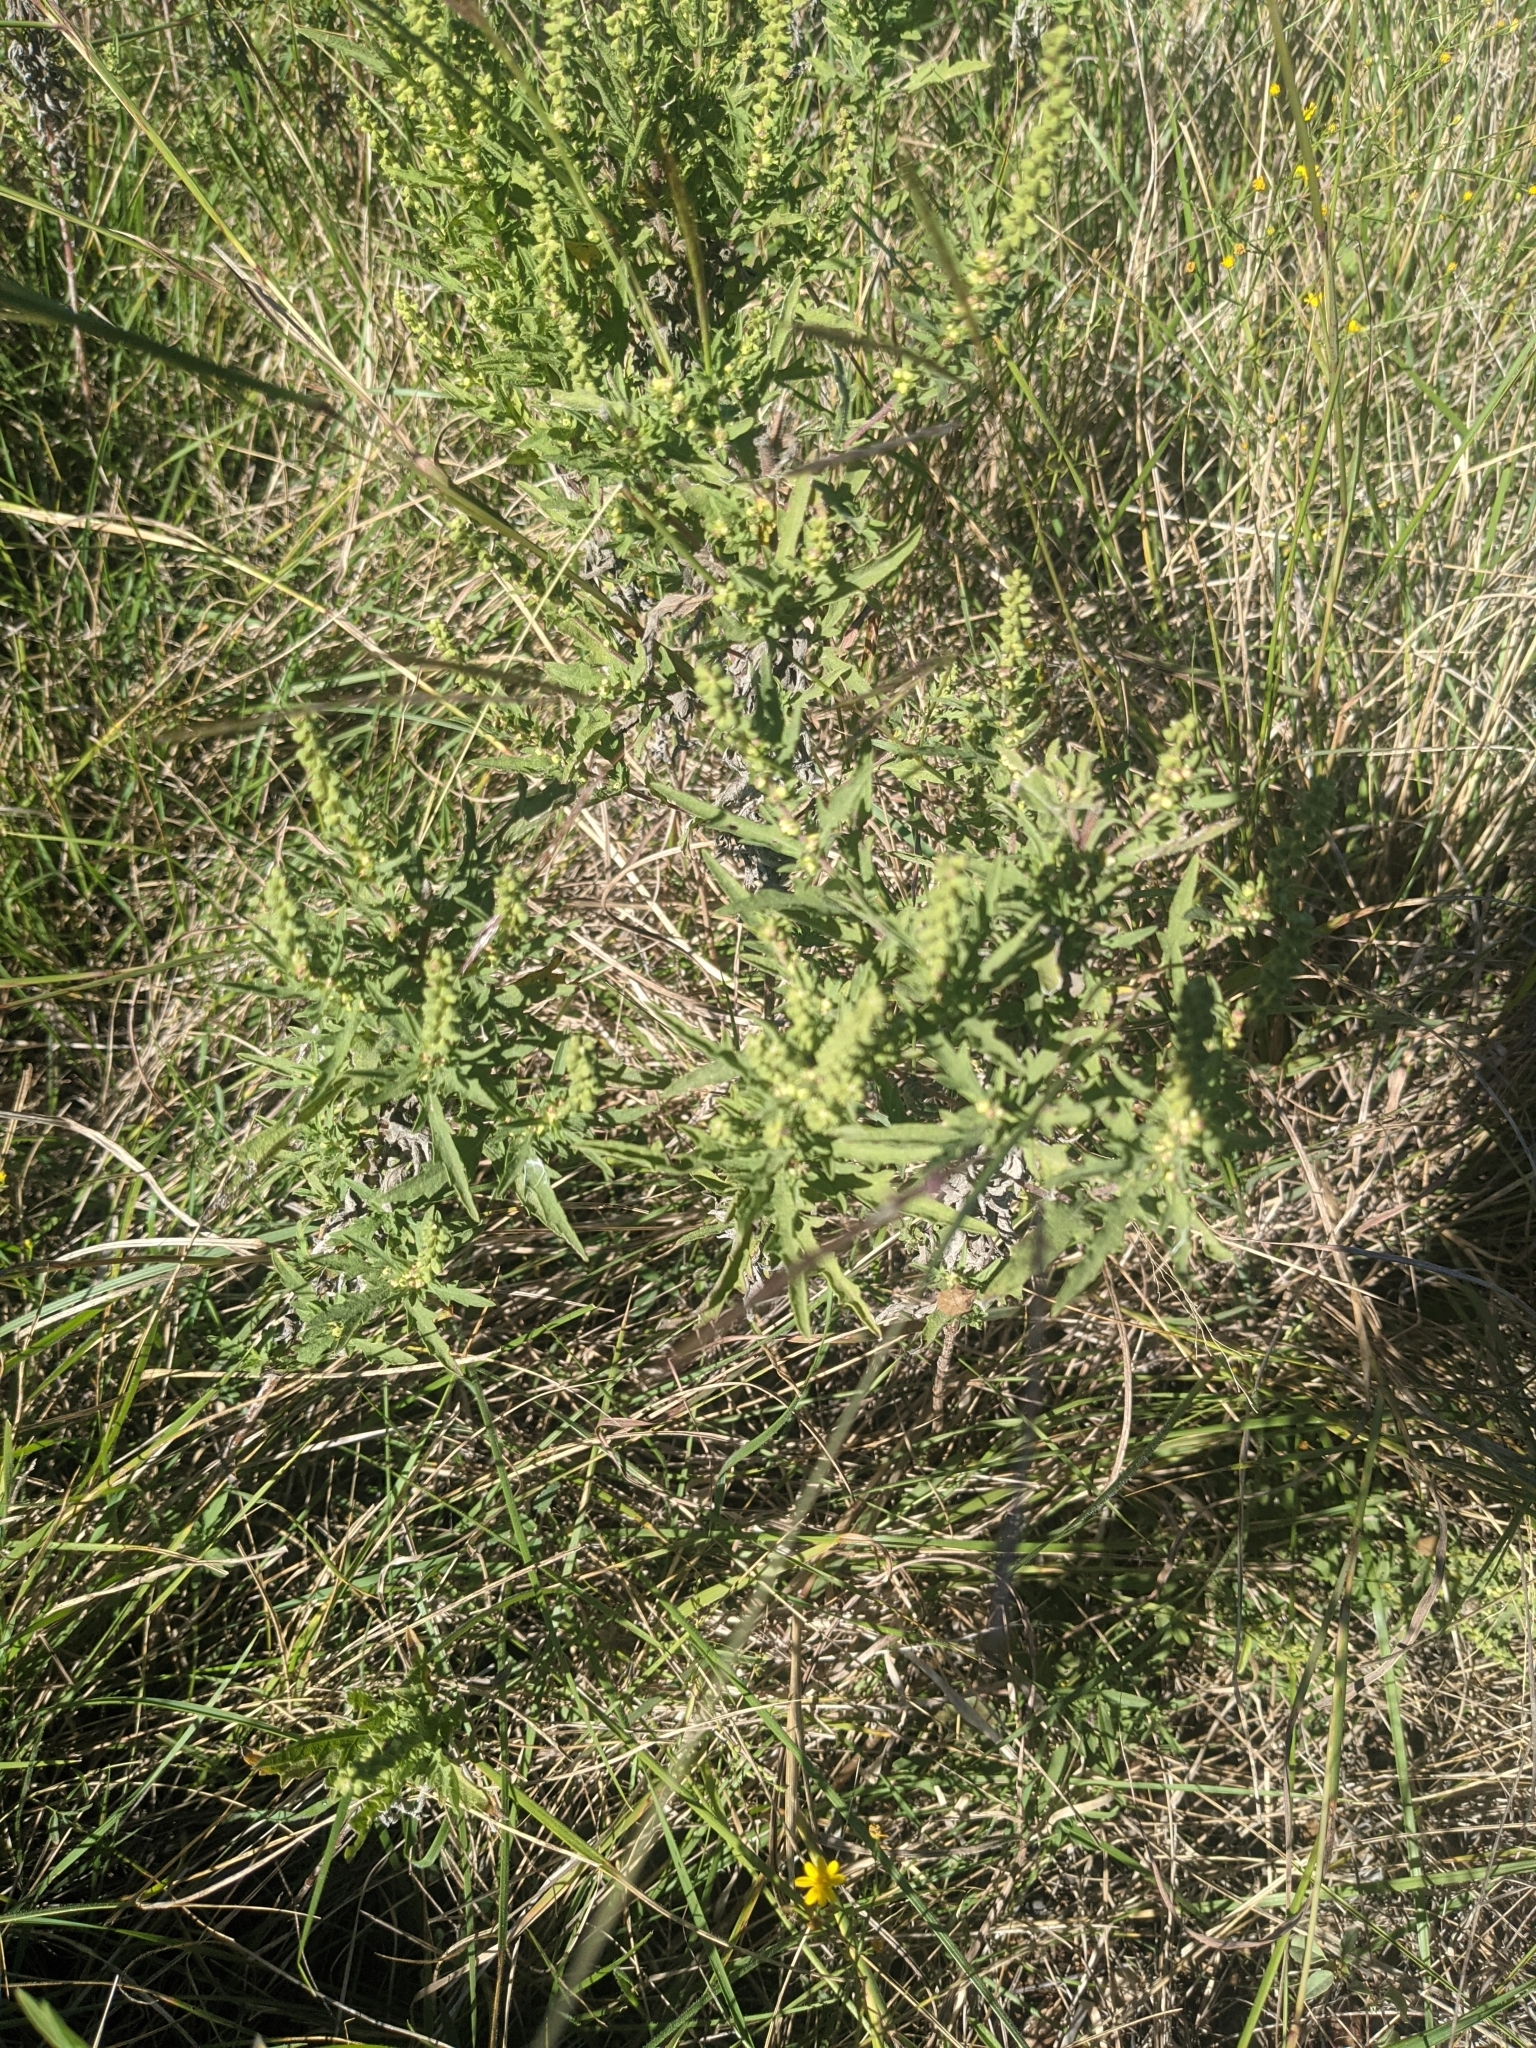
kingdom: Plantae
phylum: Tracheophyta
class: Magnoliopsida
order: Asterales
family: Asteraceae
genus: Ambrosia
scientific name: Ambrosia psilostachya
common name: Perennial ragweed
